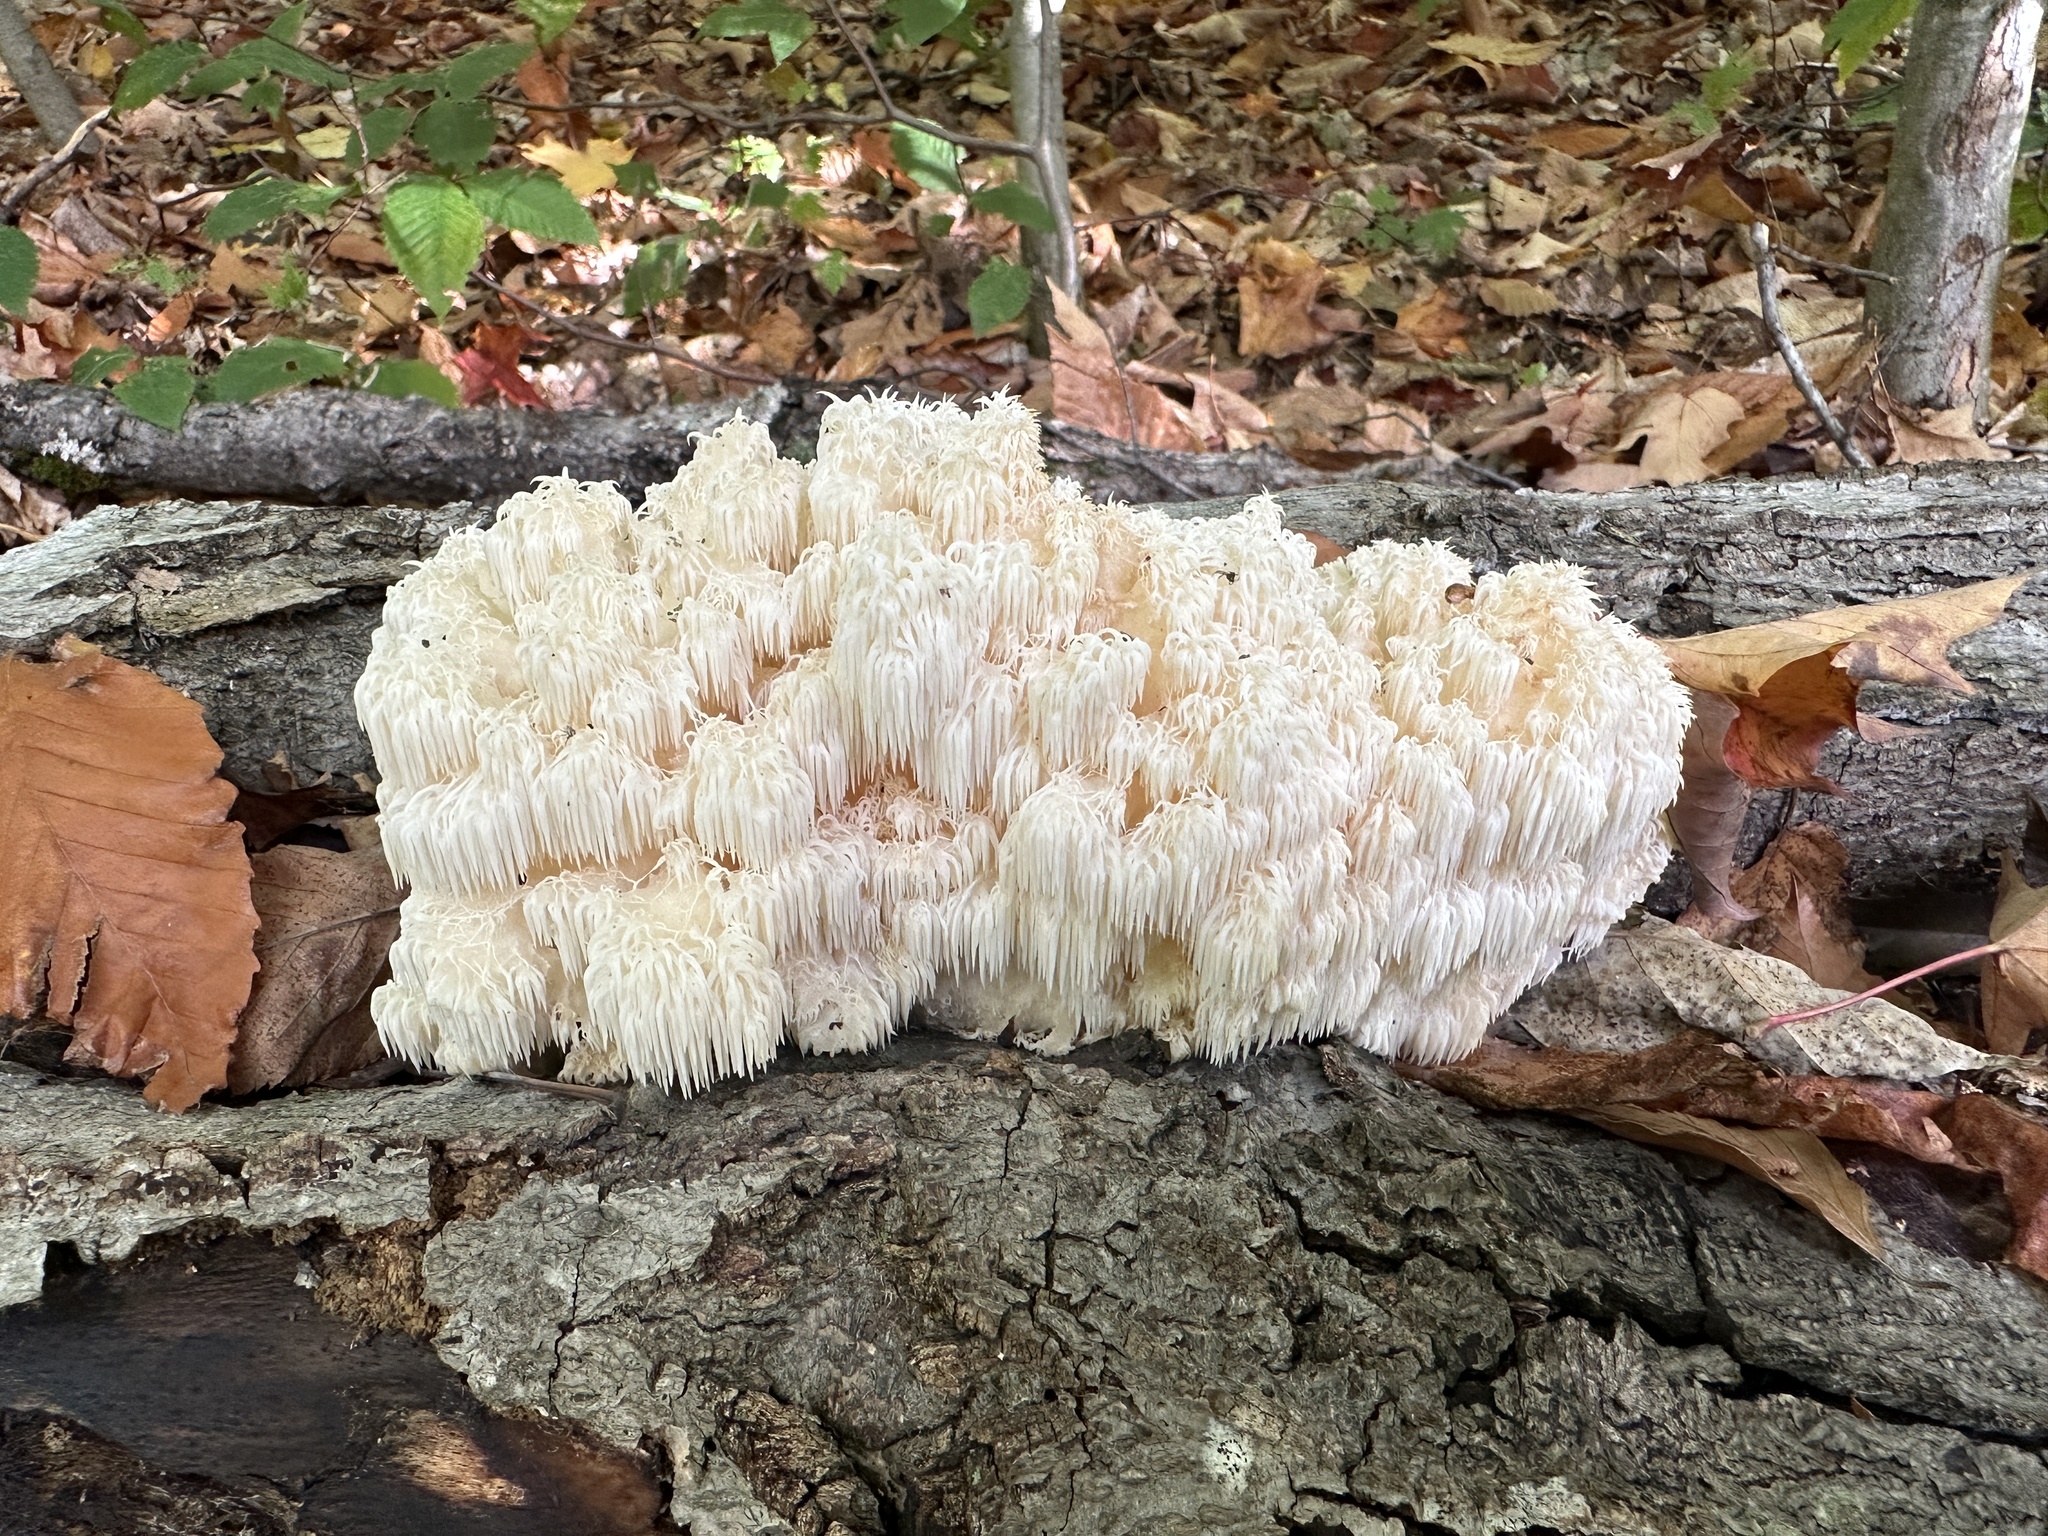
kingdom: Fungi
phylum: Basidiomycota
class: Agaricomycetes
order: Russulales
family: Hericiaceae
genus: Hericium
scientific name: Hericium americanum
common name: Bear's head tooth
